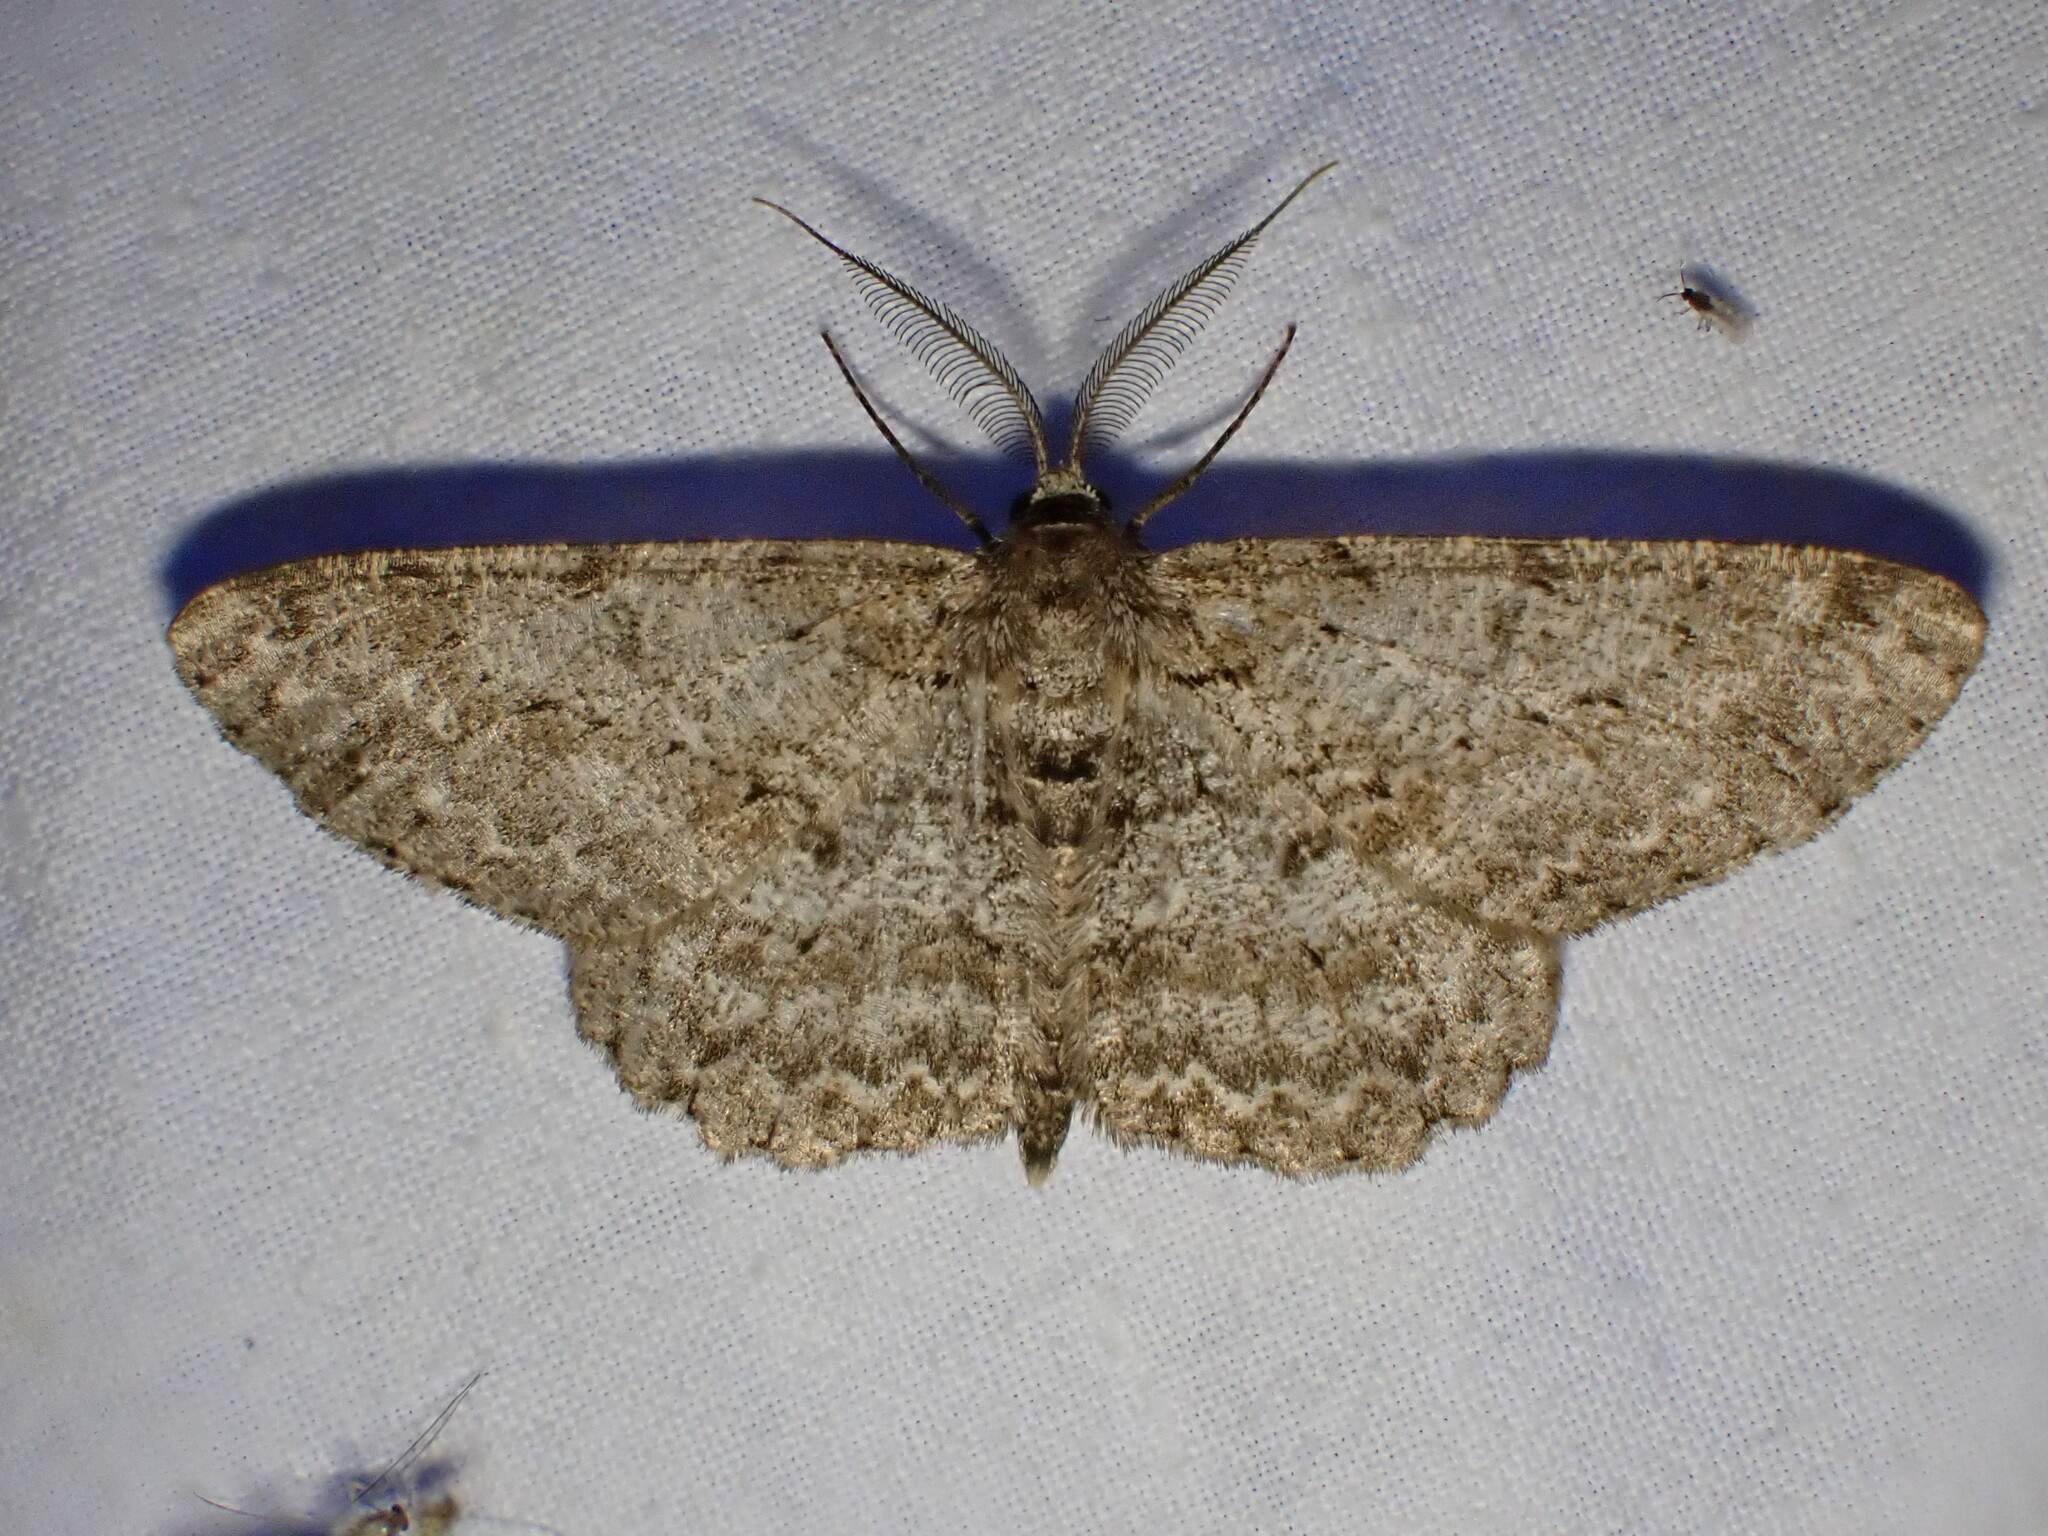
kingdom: Animalia
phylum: Arthropoda
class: Insecta
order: Lepidoptera
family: Geometridae
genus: Hypomecis
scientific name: Hypomecis punctinalis
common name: Pale oak beauty
